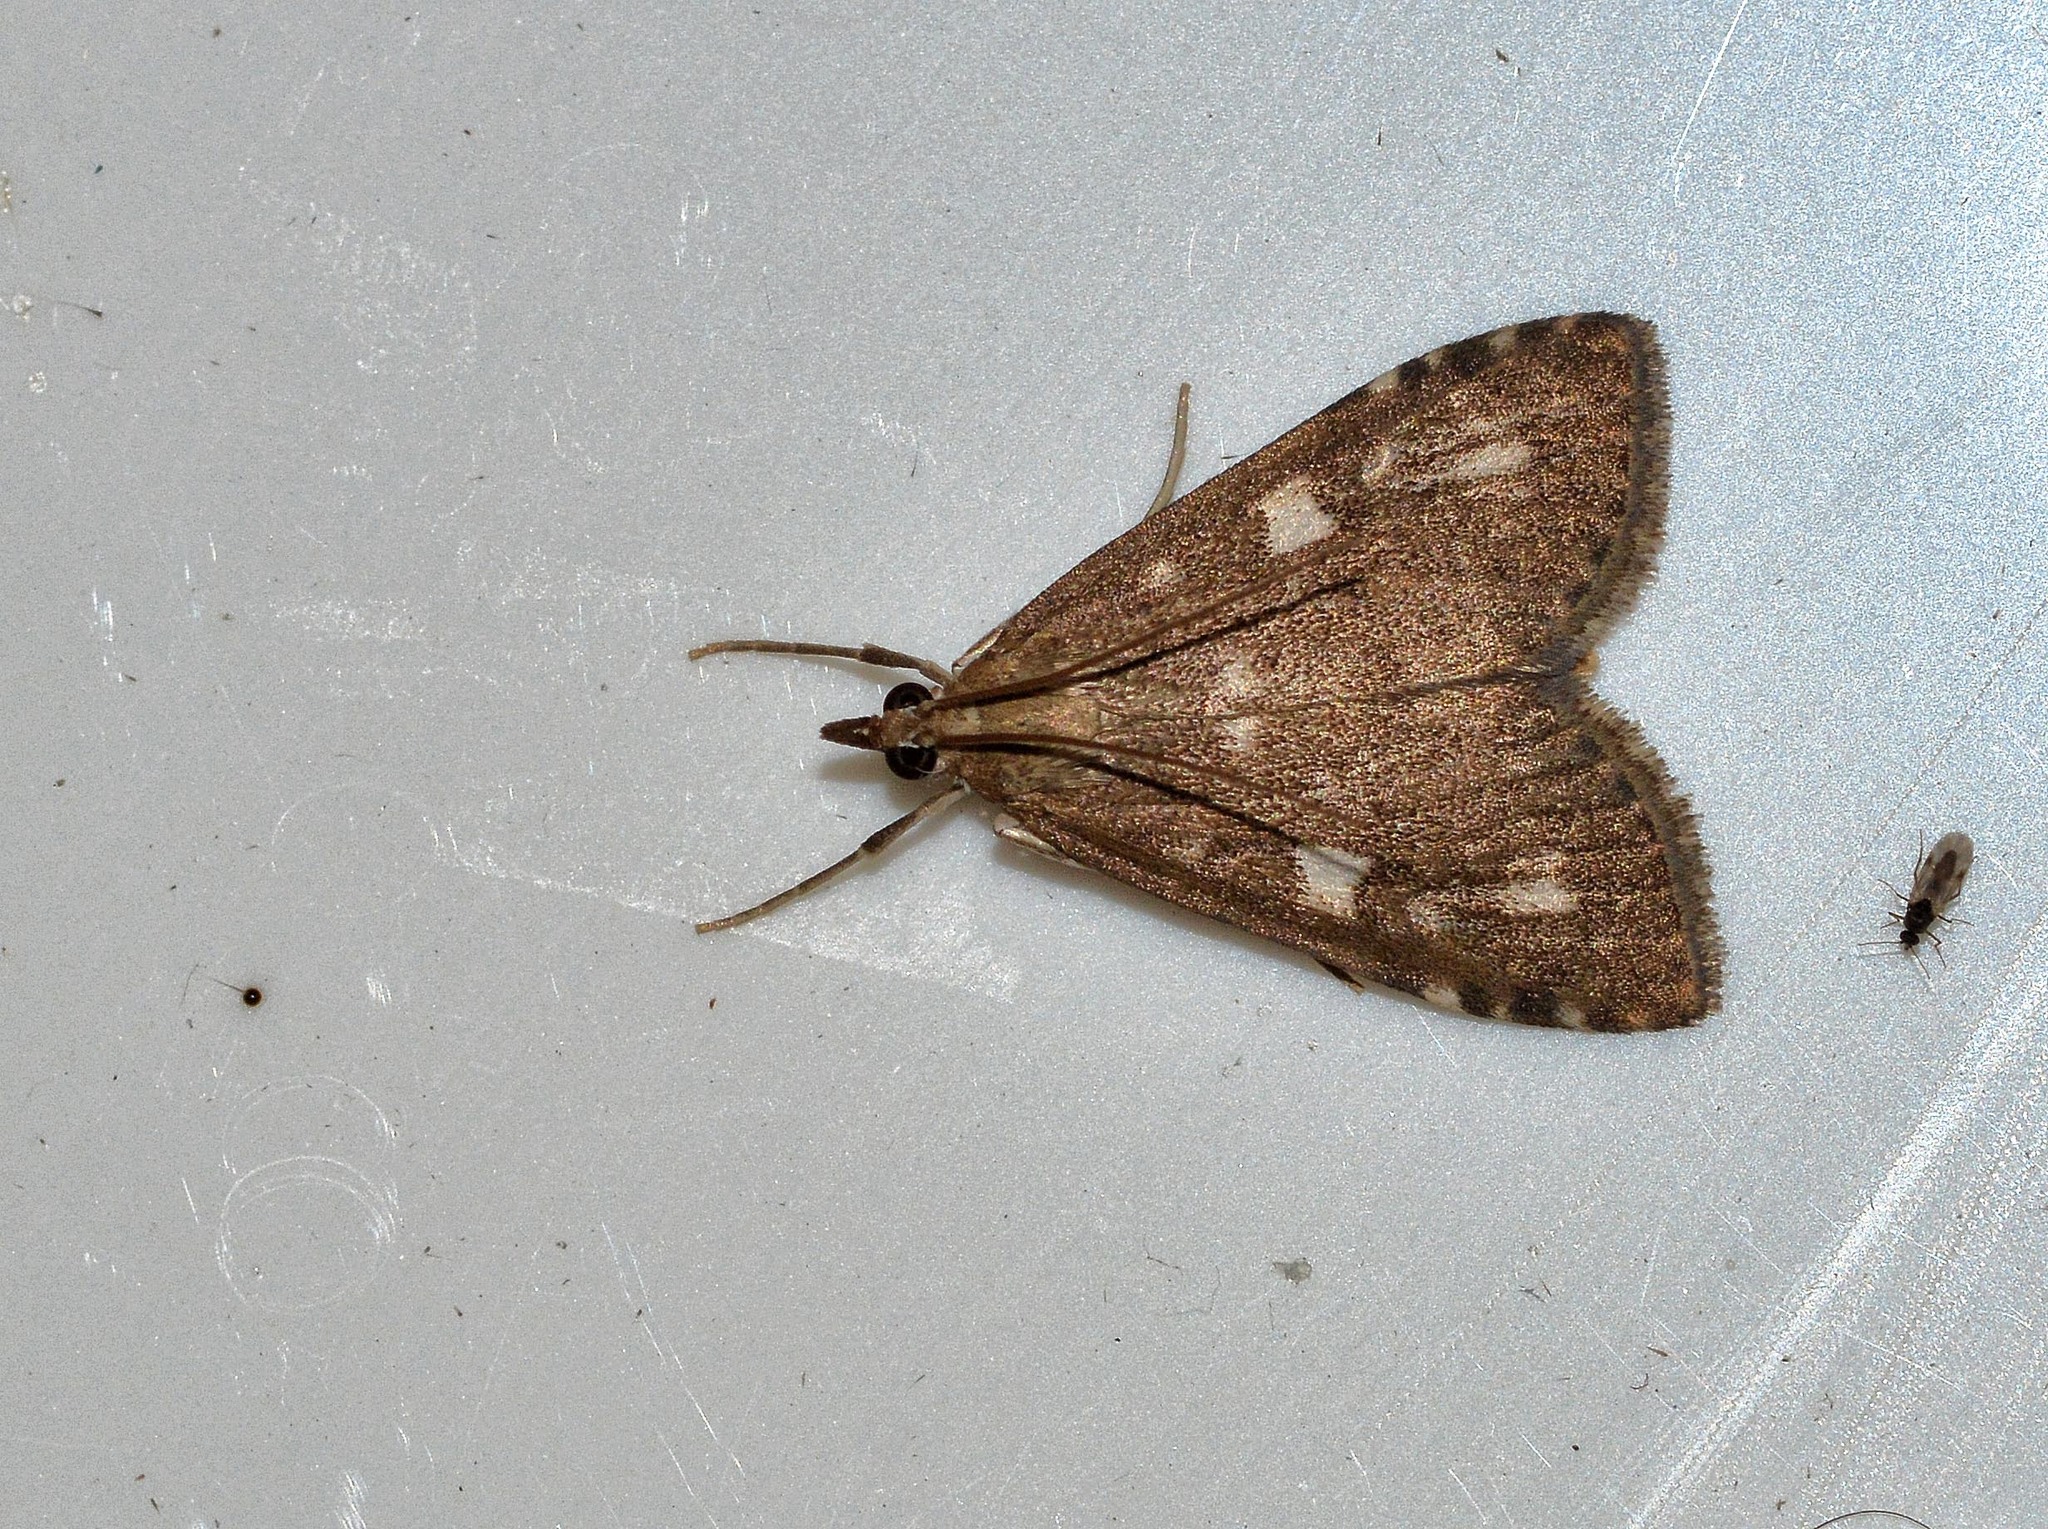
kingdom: Animalia
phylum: Arthropoda
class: Insecta
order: Lepidoptera
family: Crambidae
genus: Udea
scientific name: Udea olivalis
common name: Olive pearl
